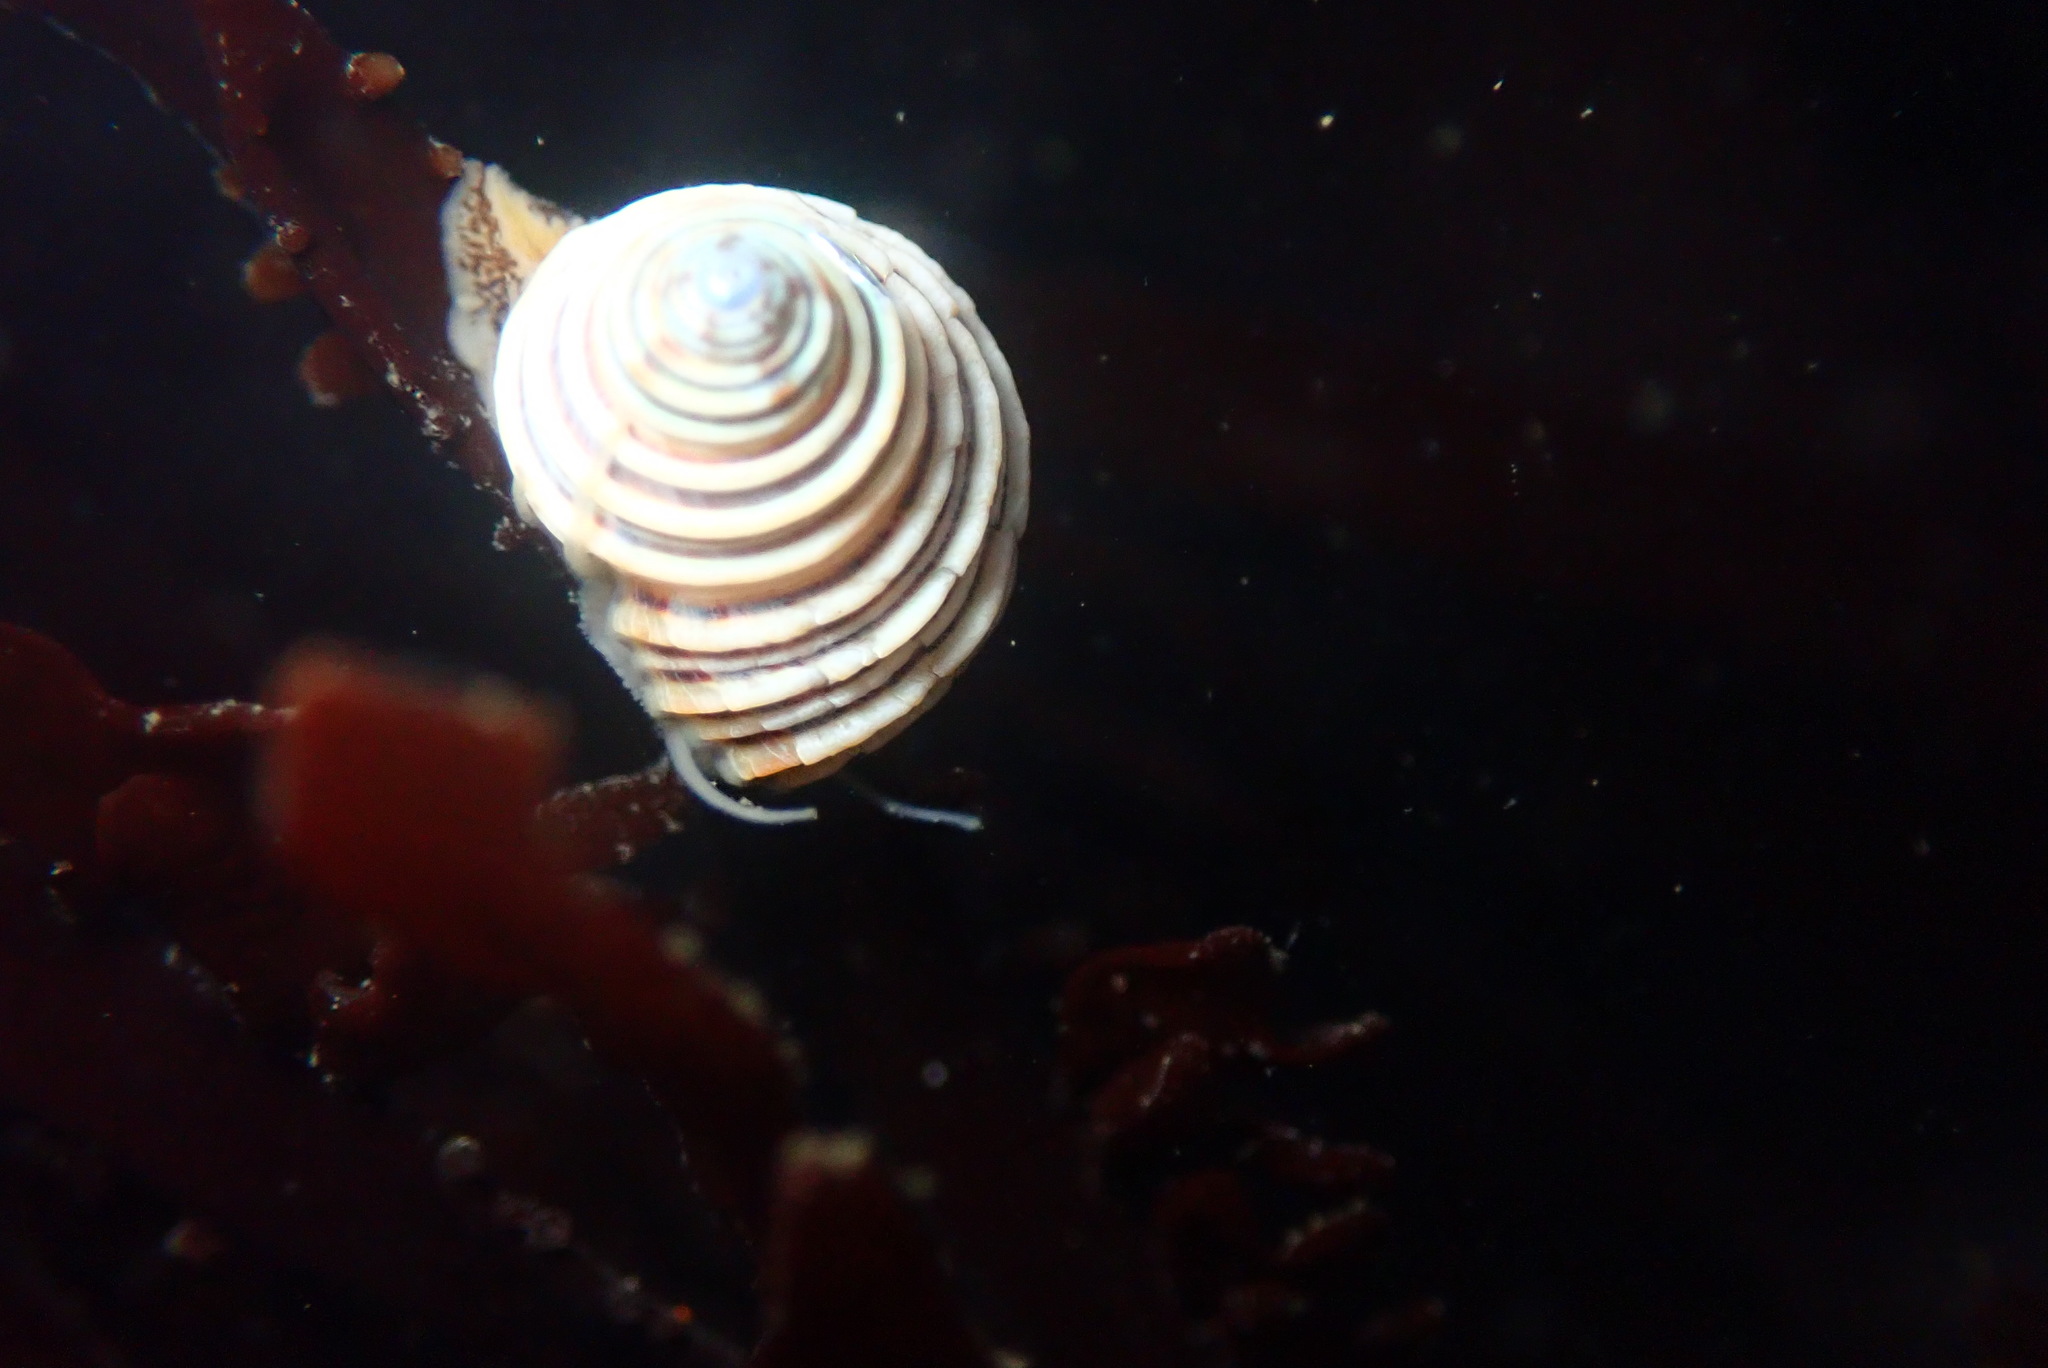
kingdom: Animalia
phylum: Mollusca
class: Gastropoda
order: Trochida
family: Calliostomatidae
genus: Calliostoma
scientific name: Calliostoma canaliculatum
